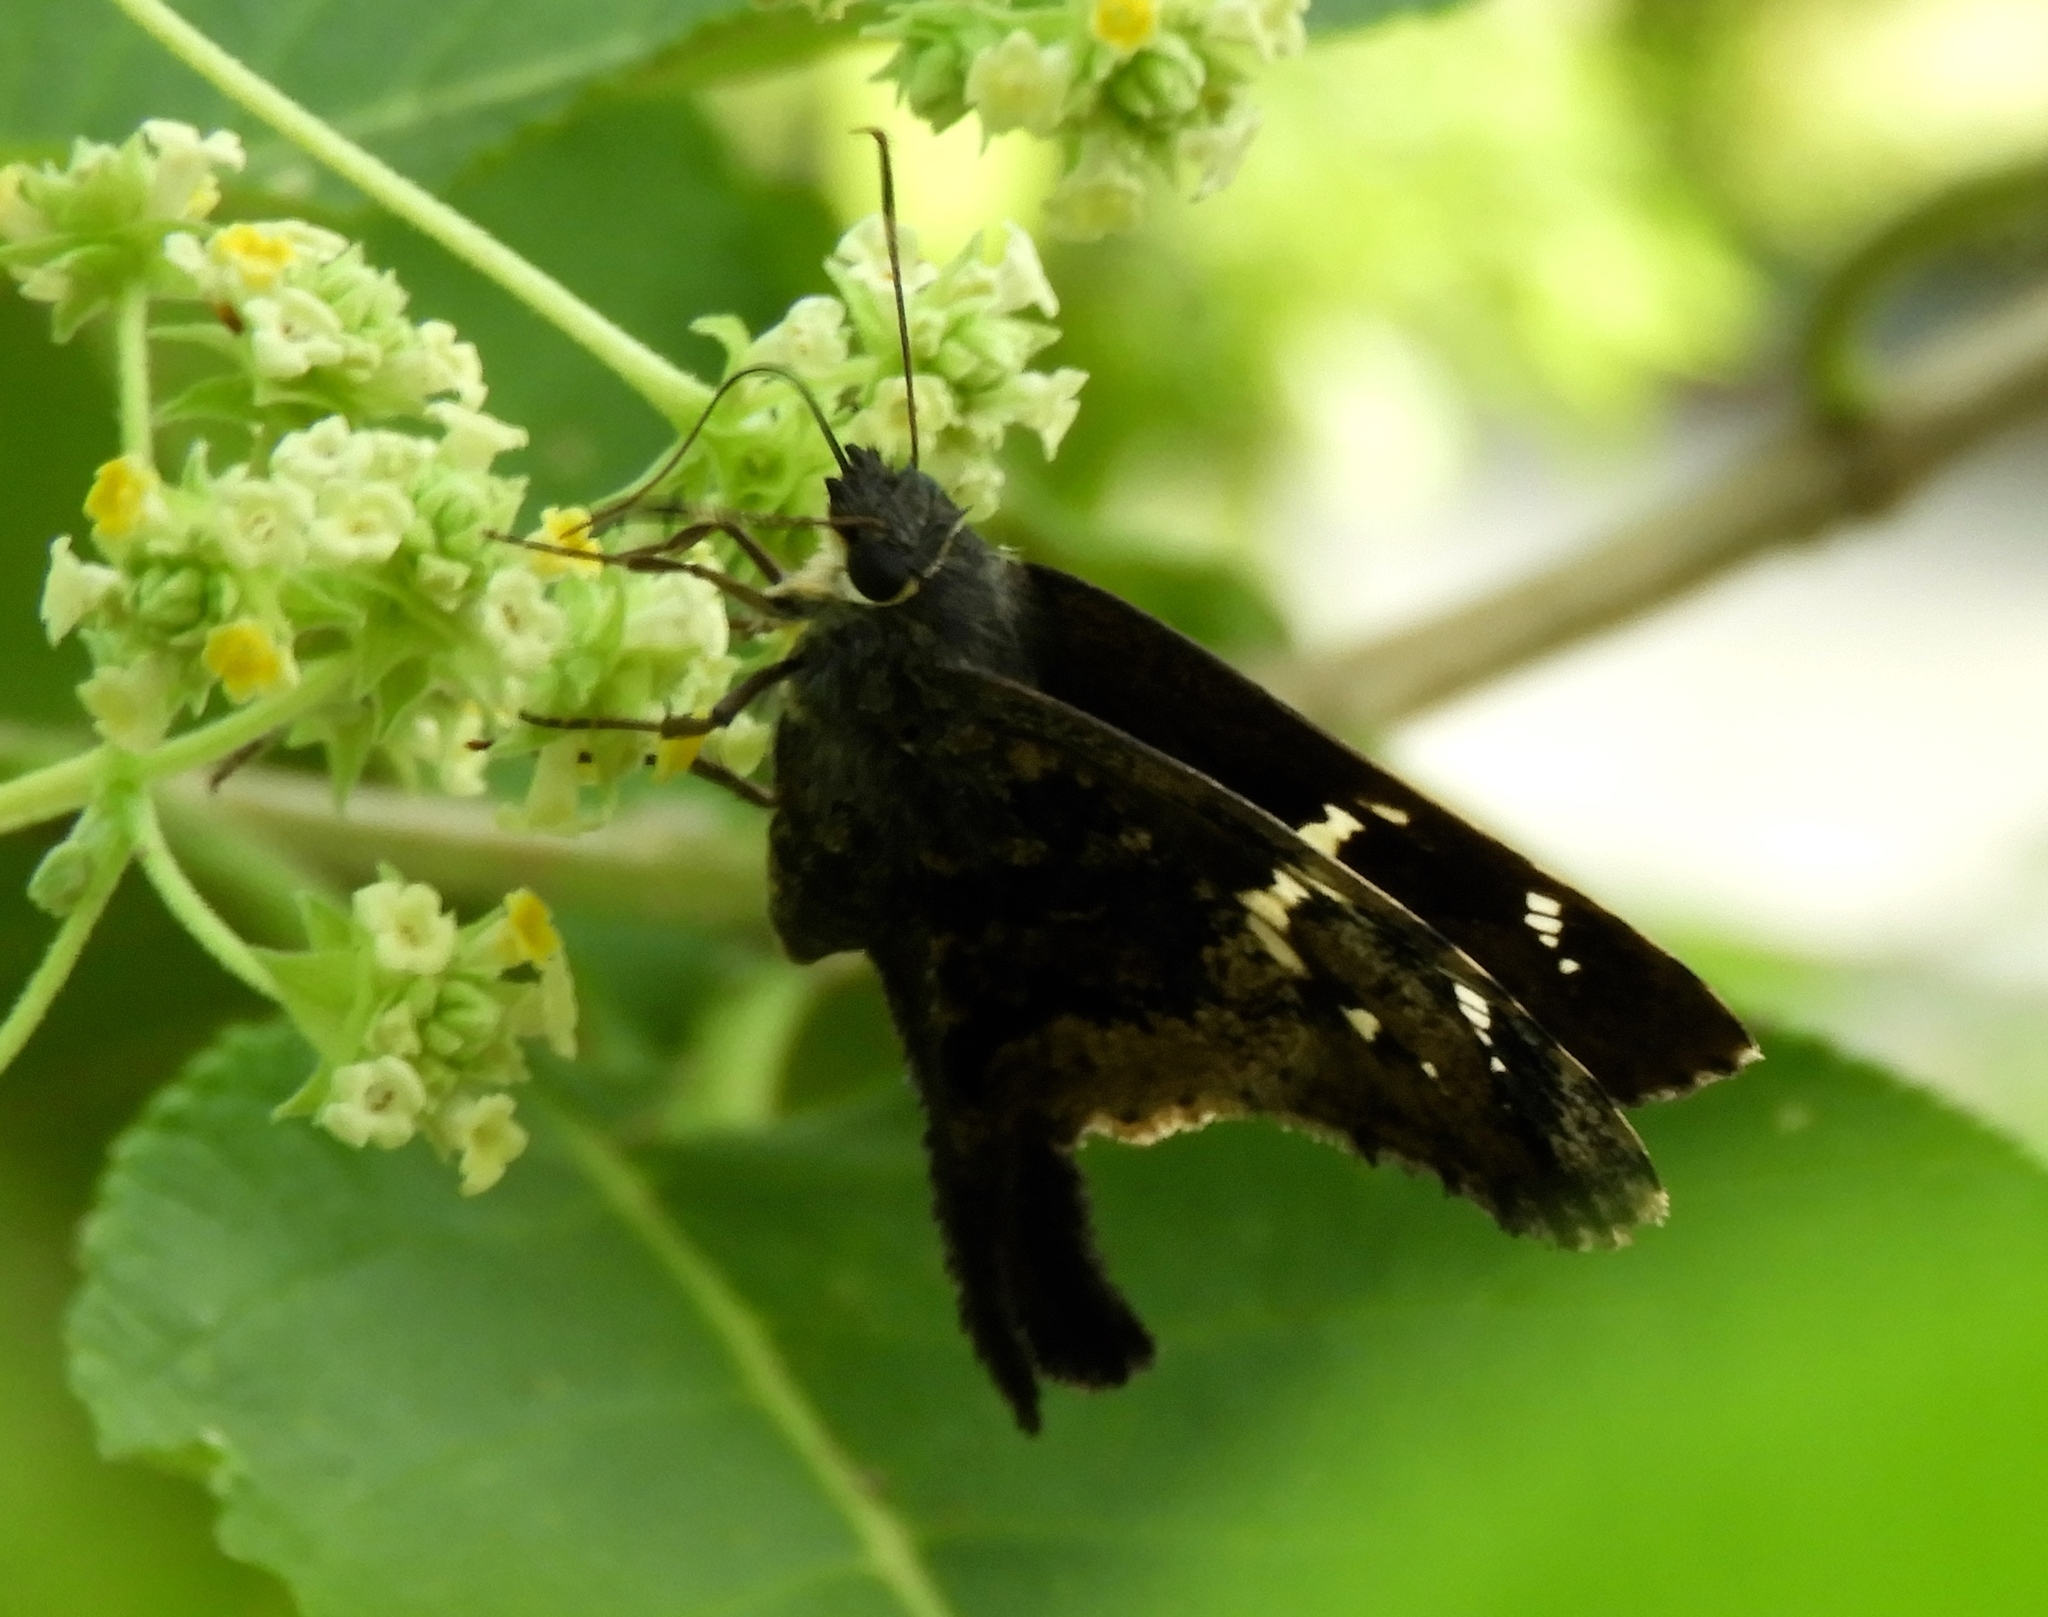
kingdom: Animalia
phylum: Arthropoda
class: Insecta
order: Lepidoptera
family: Hesperiidae
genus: Codatractus
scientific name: Codatractus alcaeus
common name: White-crescent longtail
